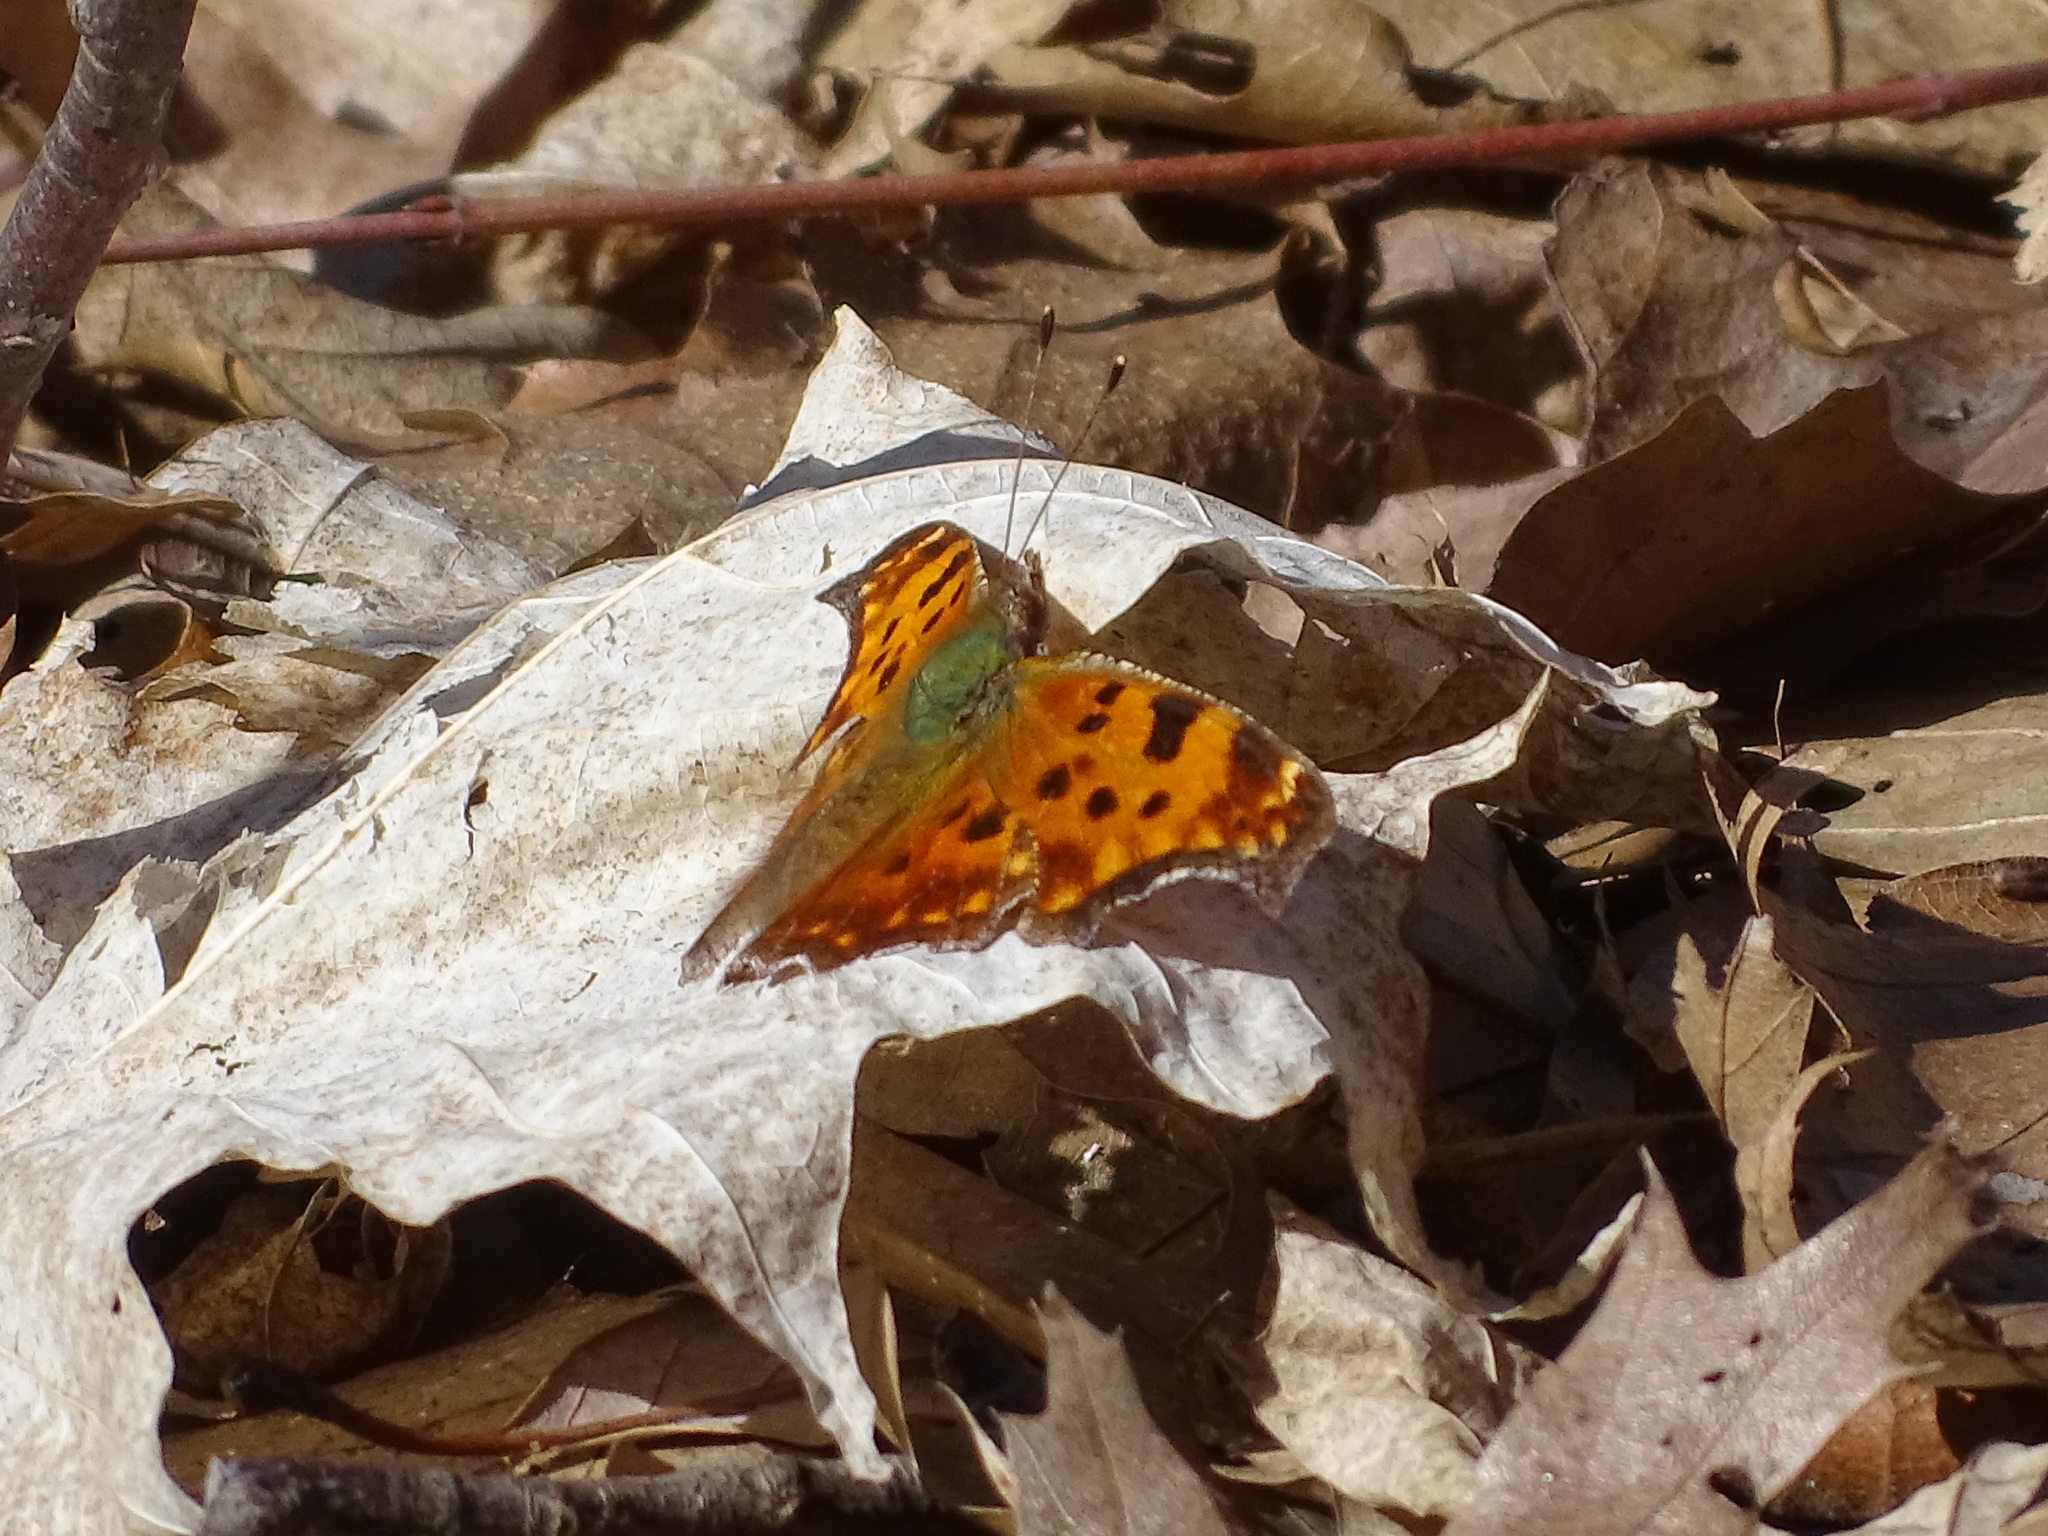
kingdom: Animalia
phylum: Arthropoda
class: Insecta
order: Lepidoptera
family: Nymphalidae
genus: Polygonia
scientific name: Polygonia comma
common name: Eastern comma
